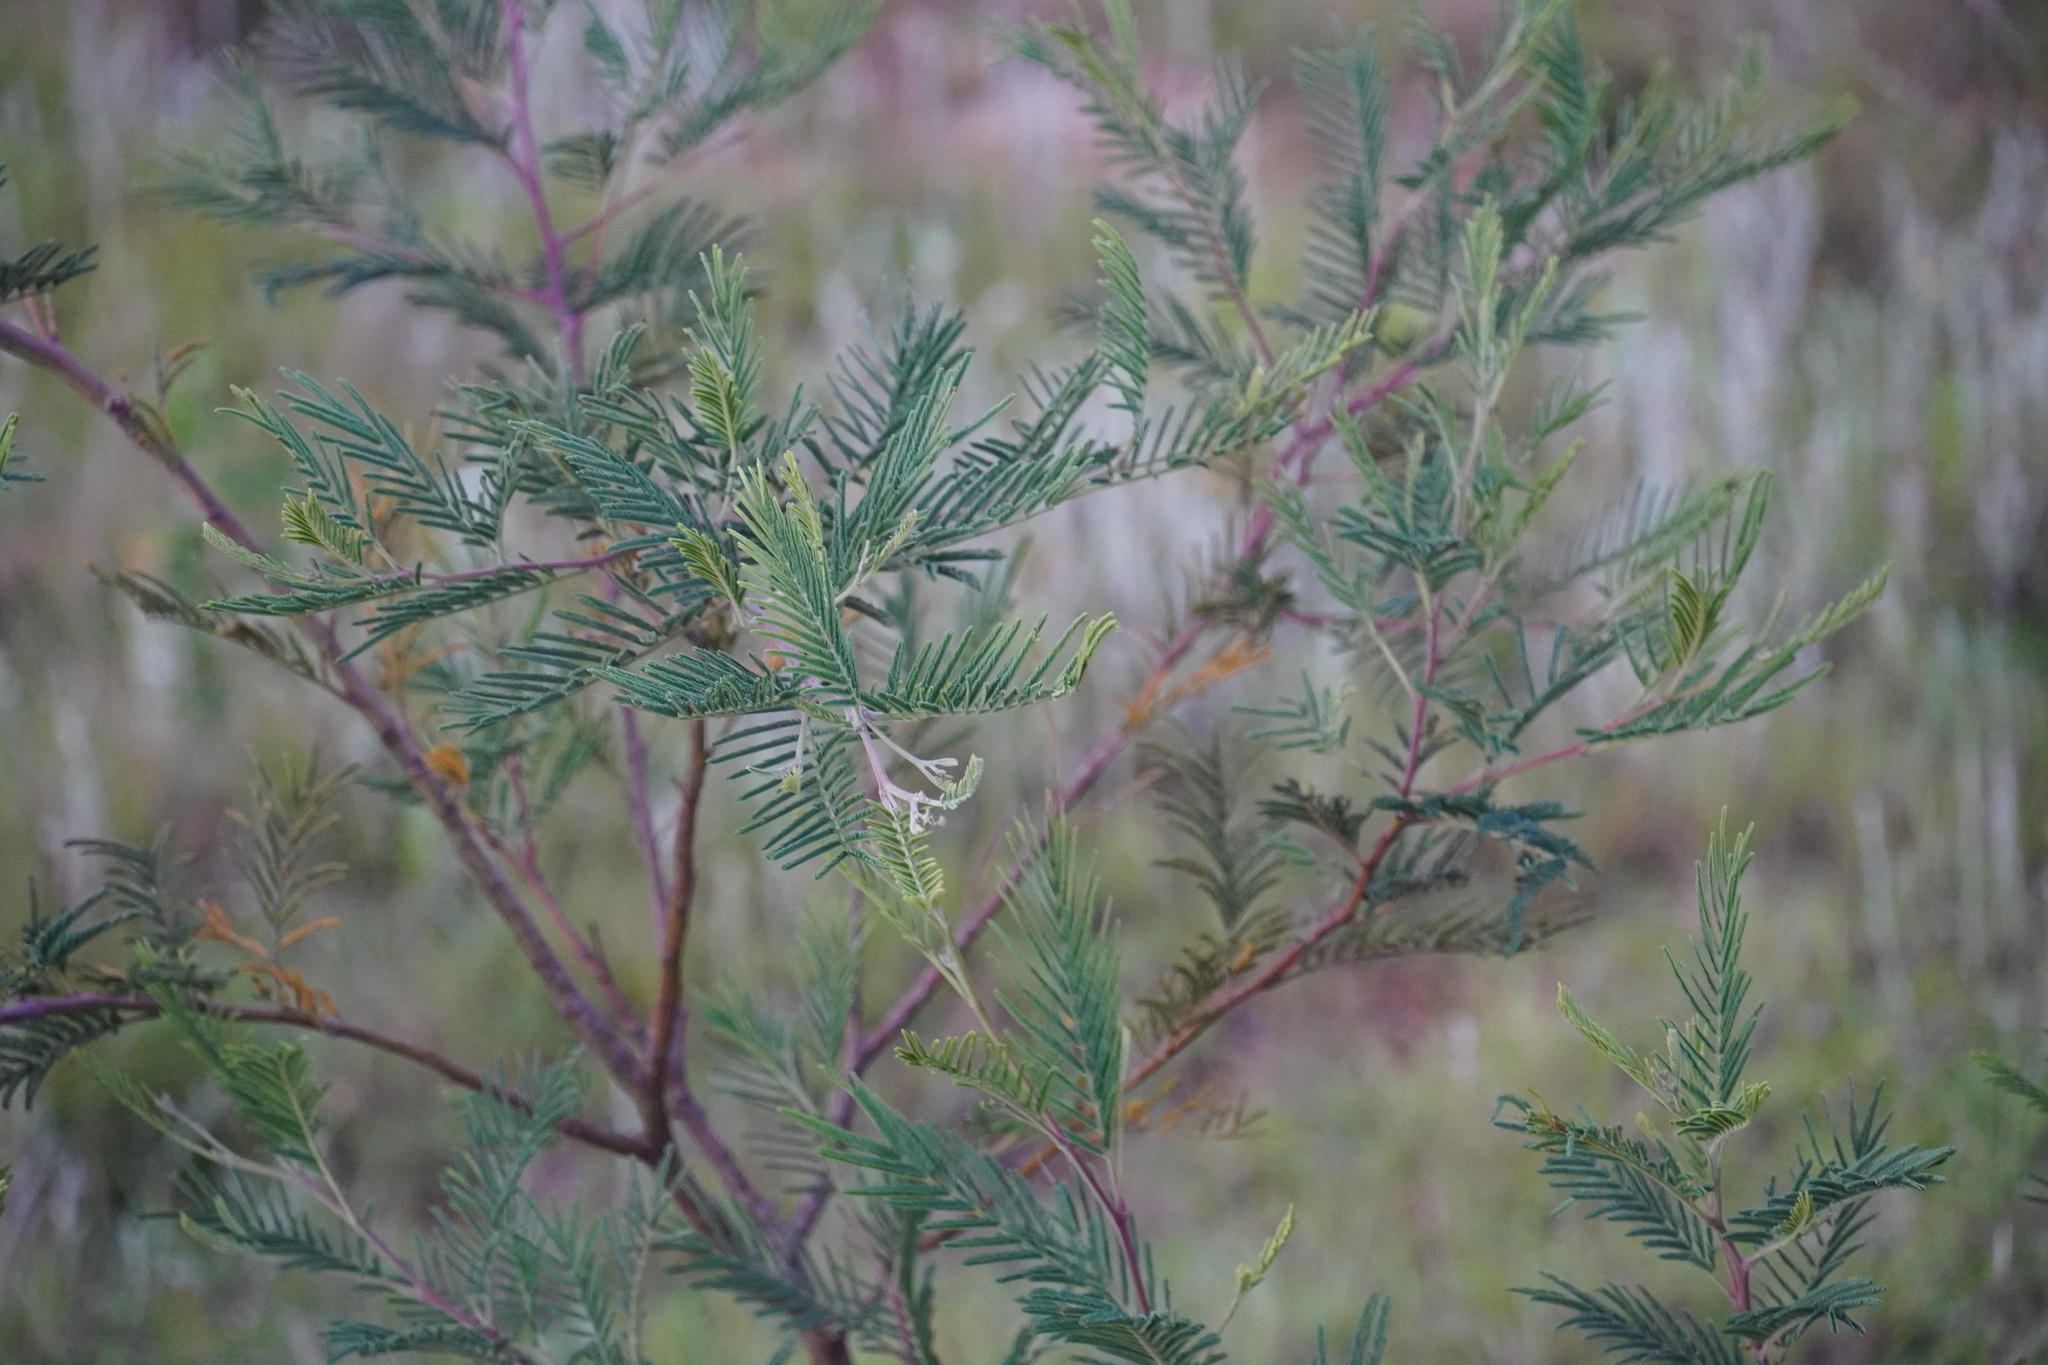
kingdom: Plantae
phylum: Tracheophyta
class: Magnoliopsida
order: Fabales
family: Fabaceae
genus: Acacia
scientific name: Acacia mearnsii
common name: Black wattle
